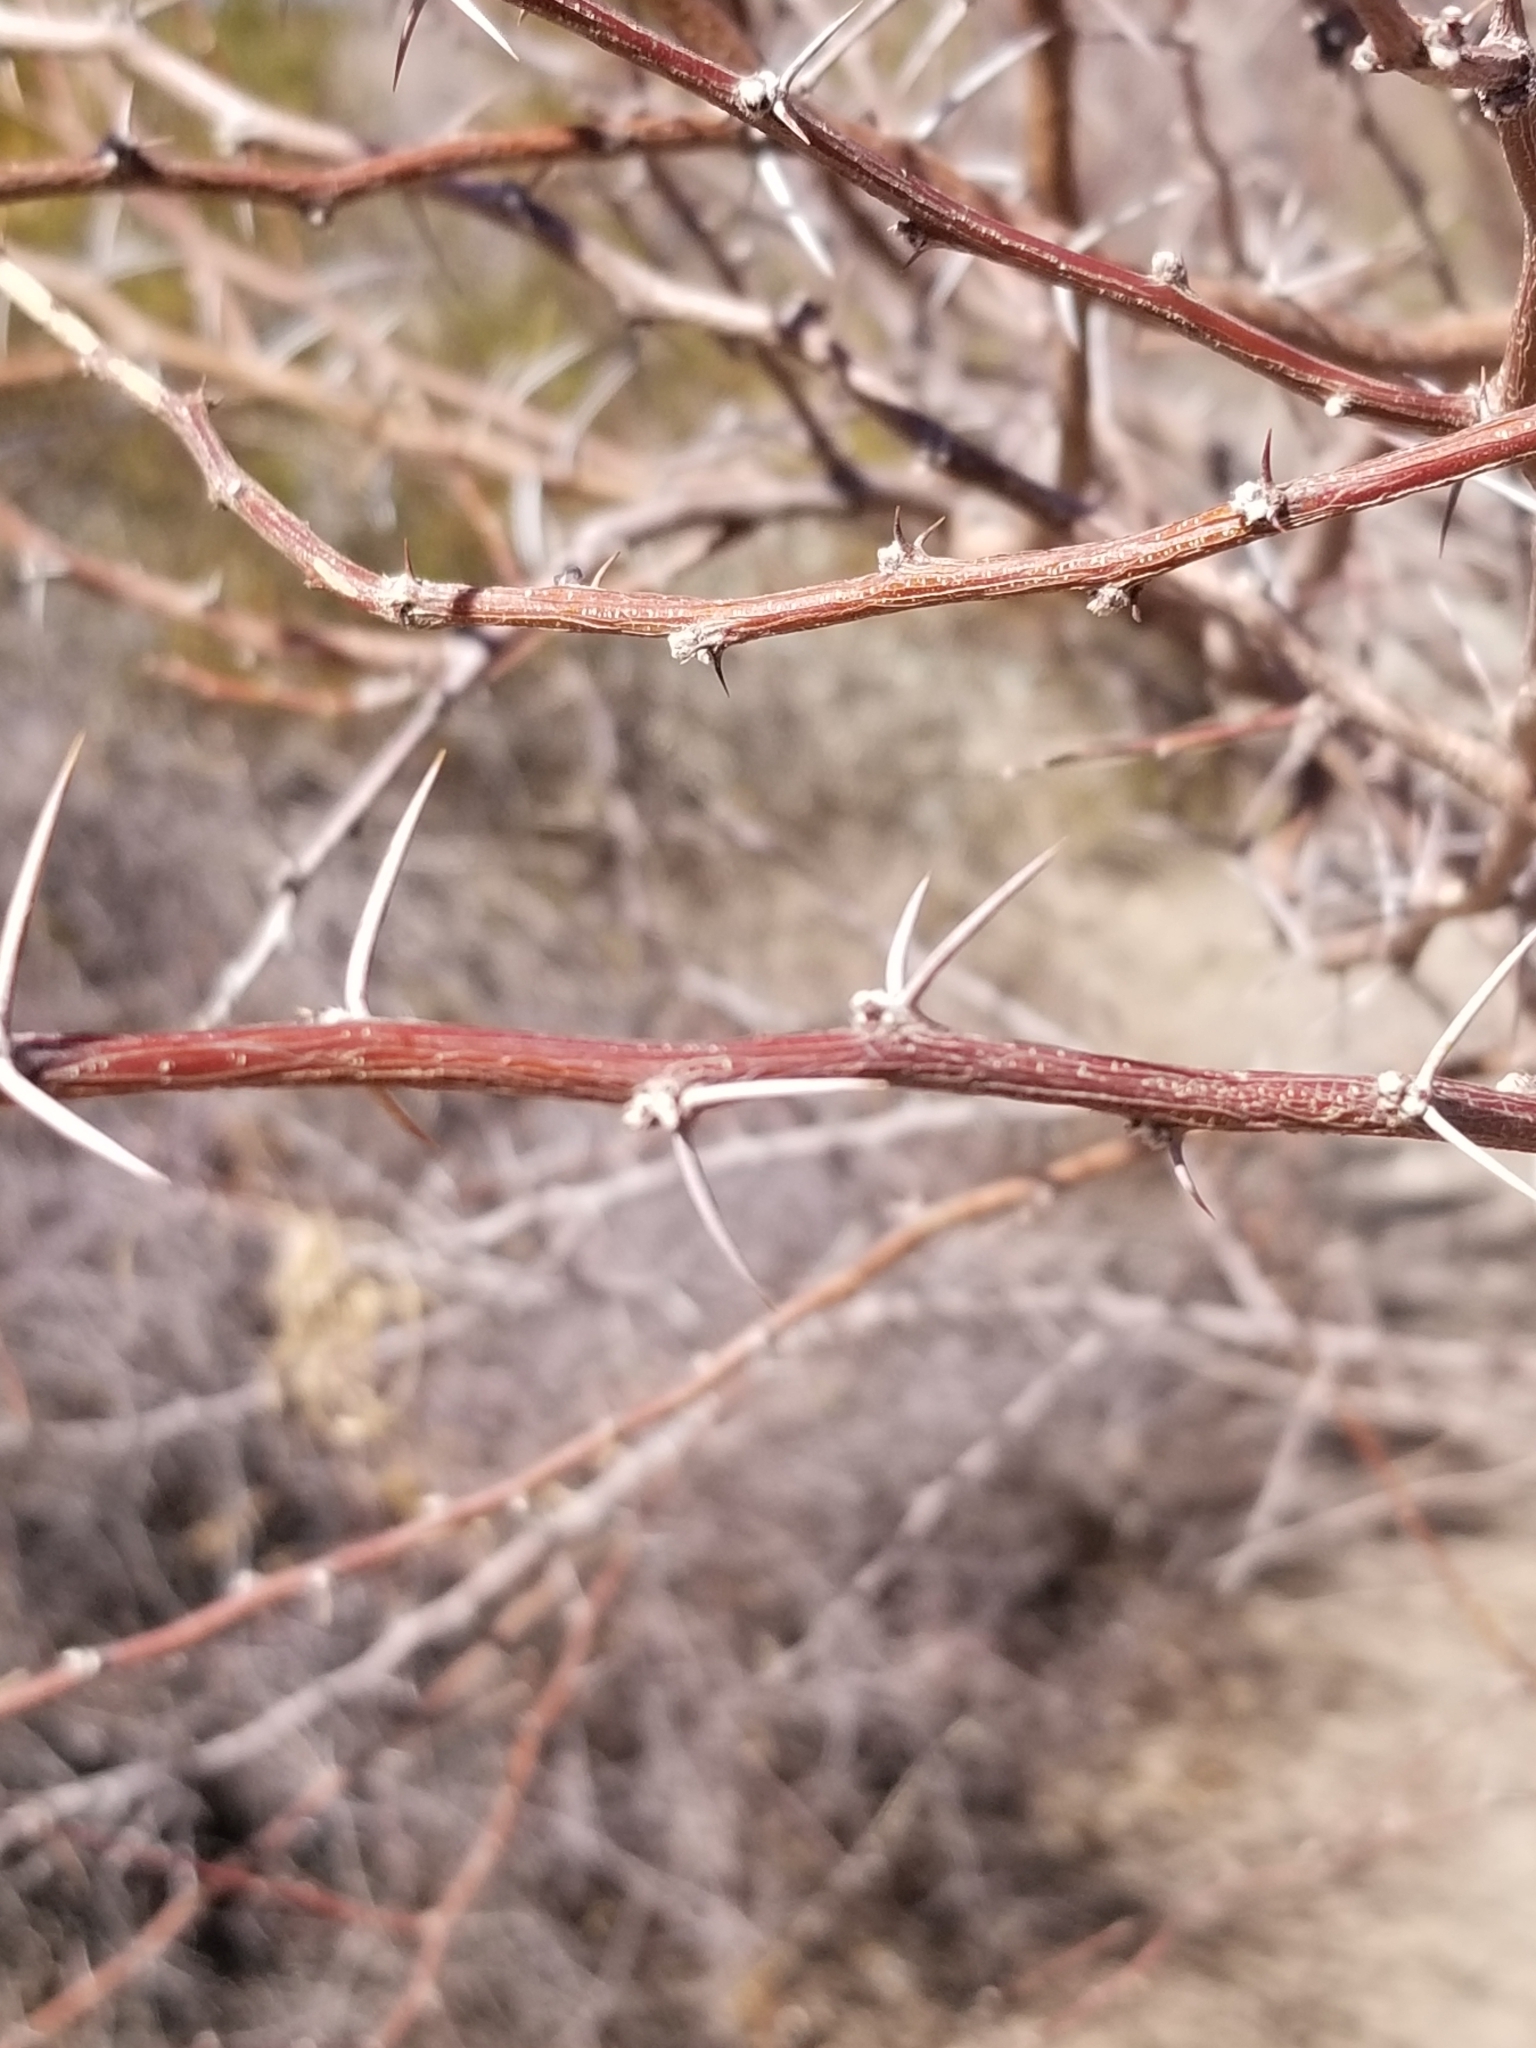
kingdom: Plantae
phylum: Tracheophyta
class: Magnoliopsida
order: Fabales
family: Fabaceae
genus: Vachellia
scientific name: Vachellia constricta
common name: Mescat acacia
